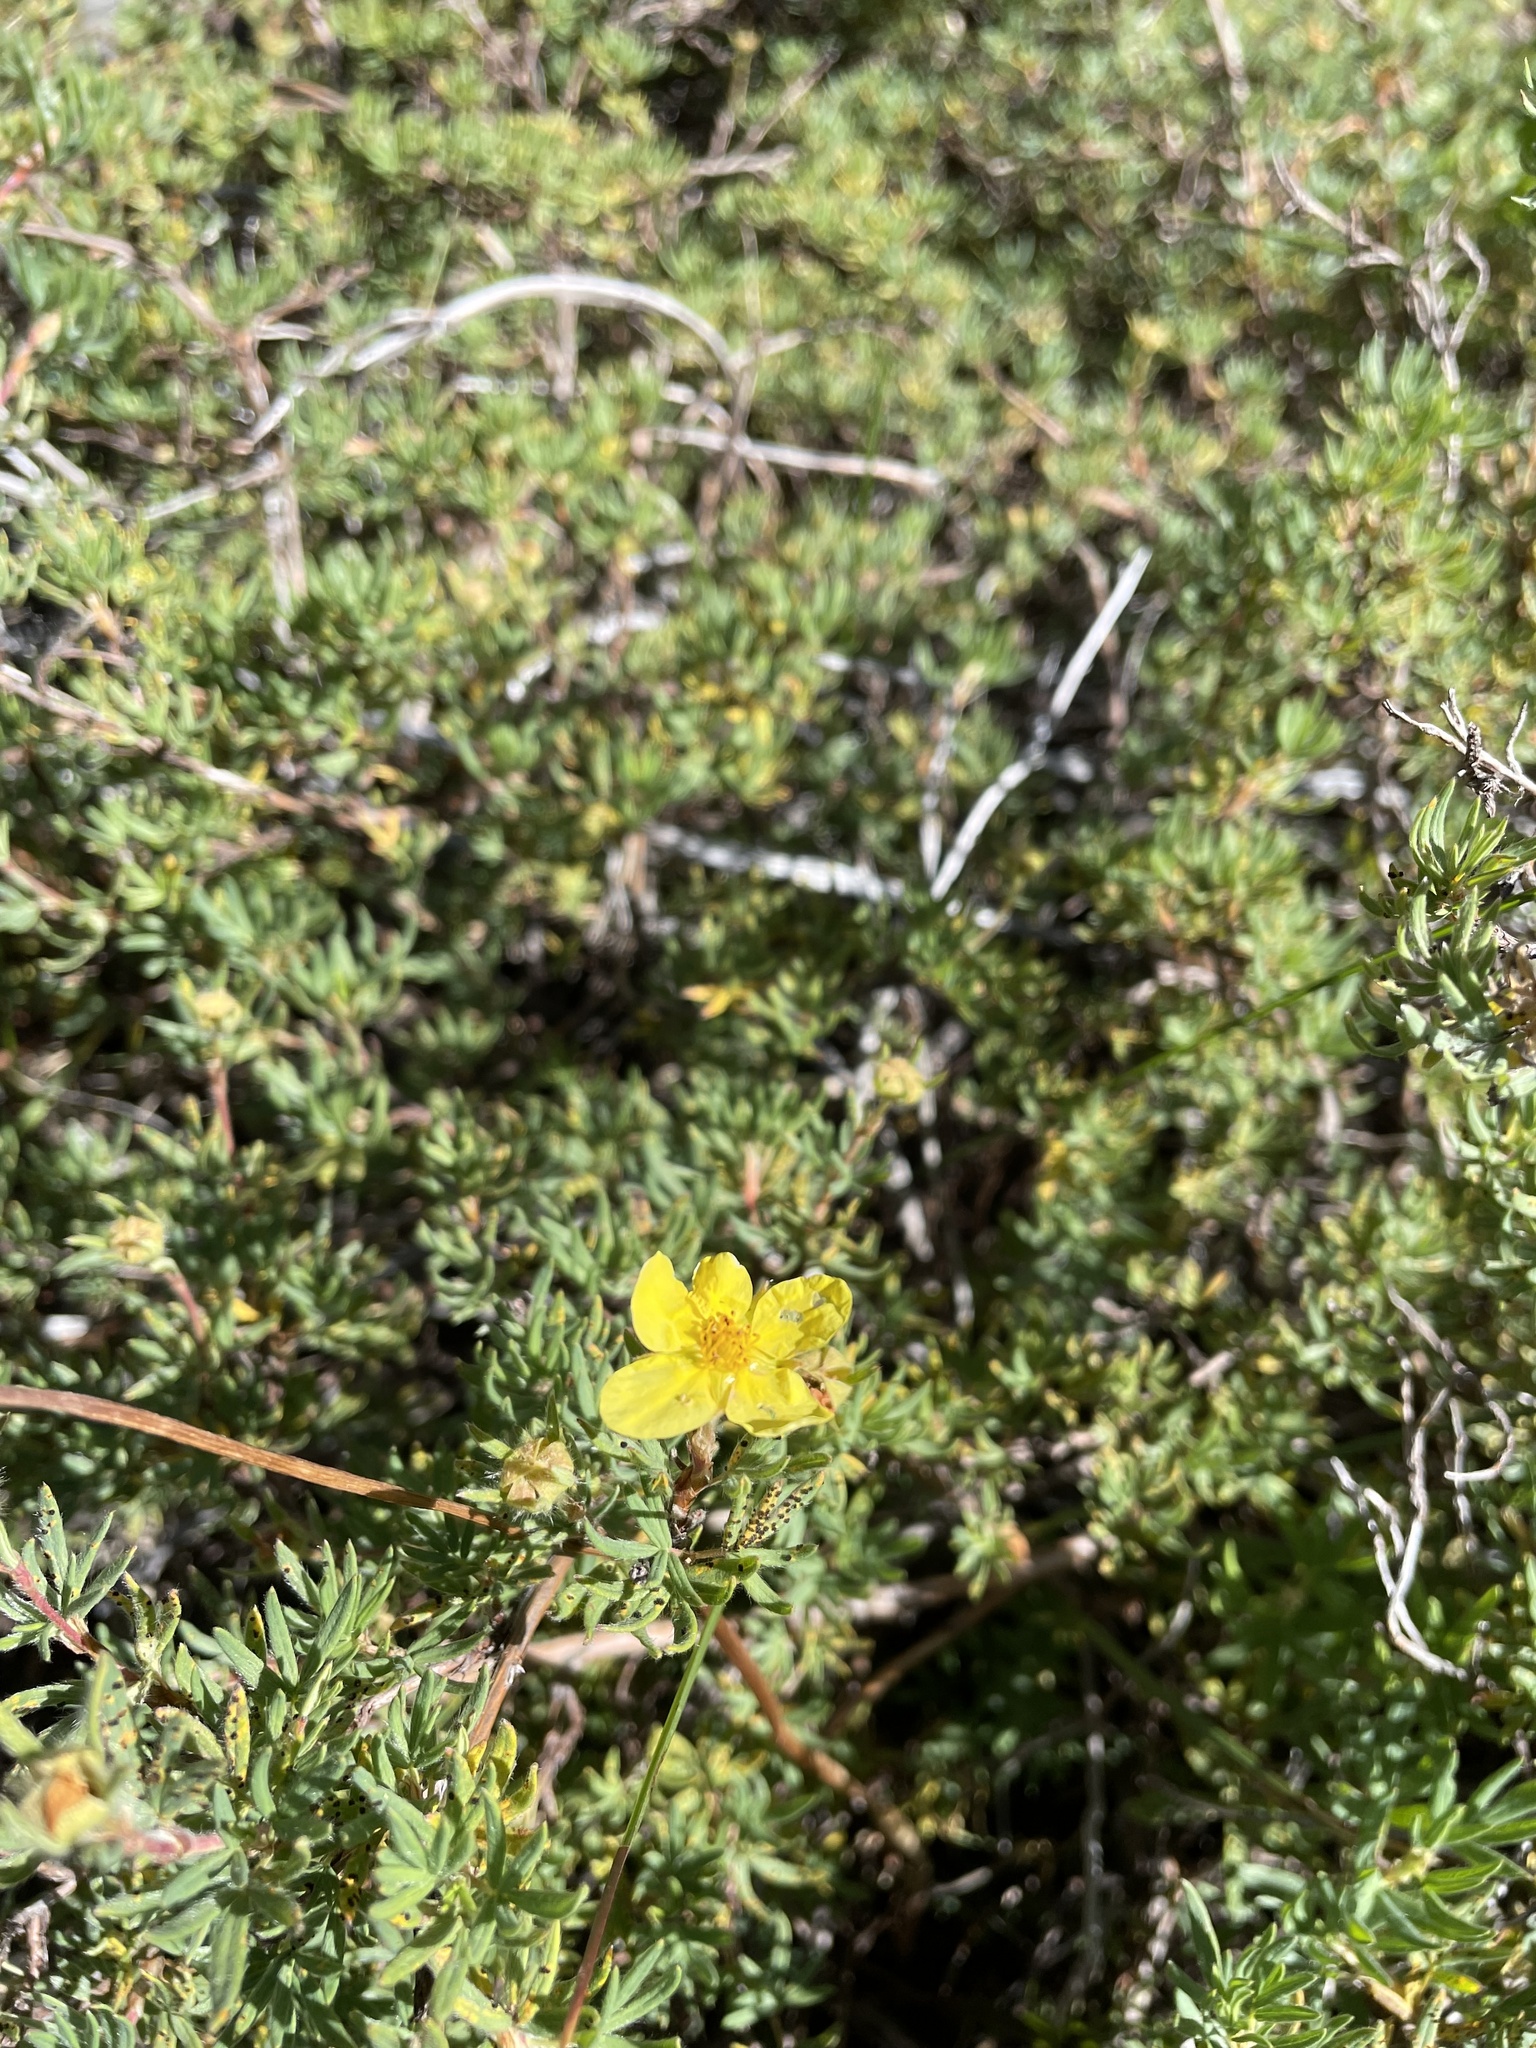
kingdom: Plantae
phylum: Tracheophyta
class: Magnoliopsida
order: Rosales
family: Rosaceae
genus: Dasiphora
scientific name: Dasiphora fruticosa
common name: Shrubby cinquefoil
